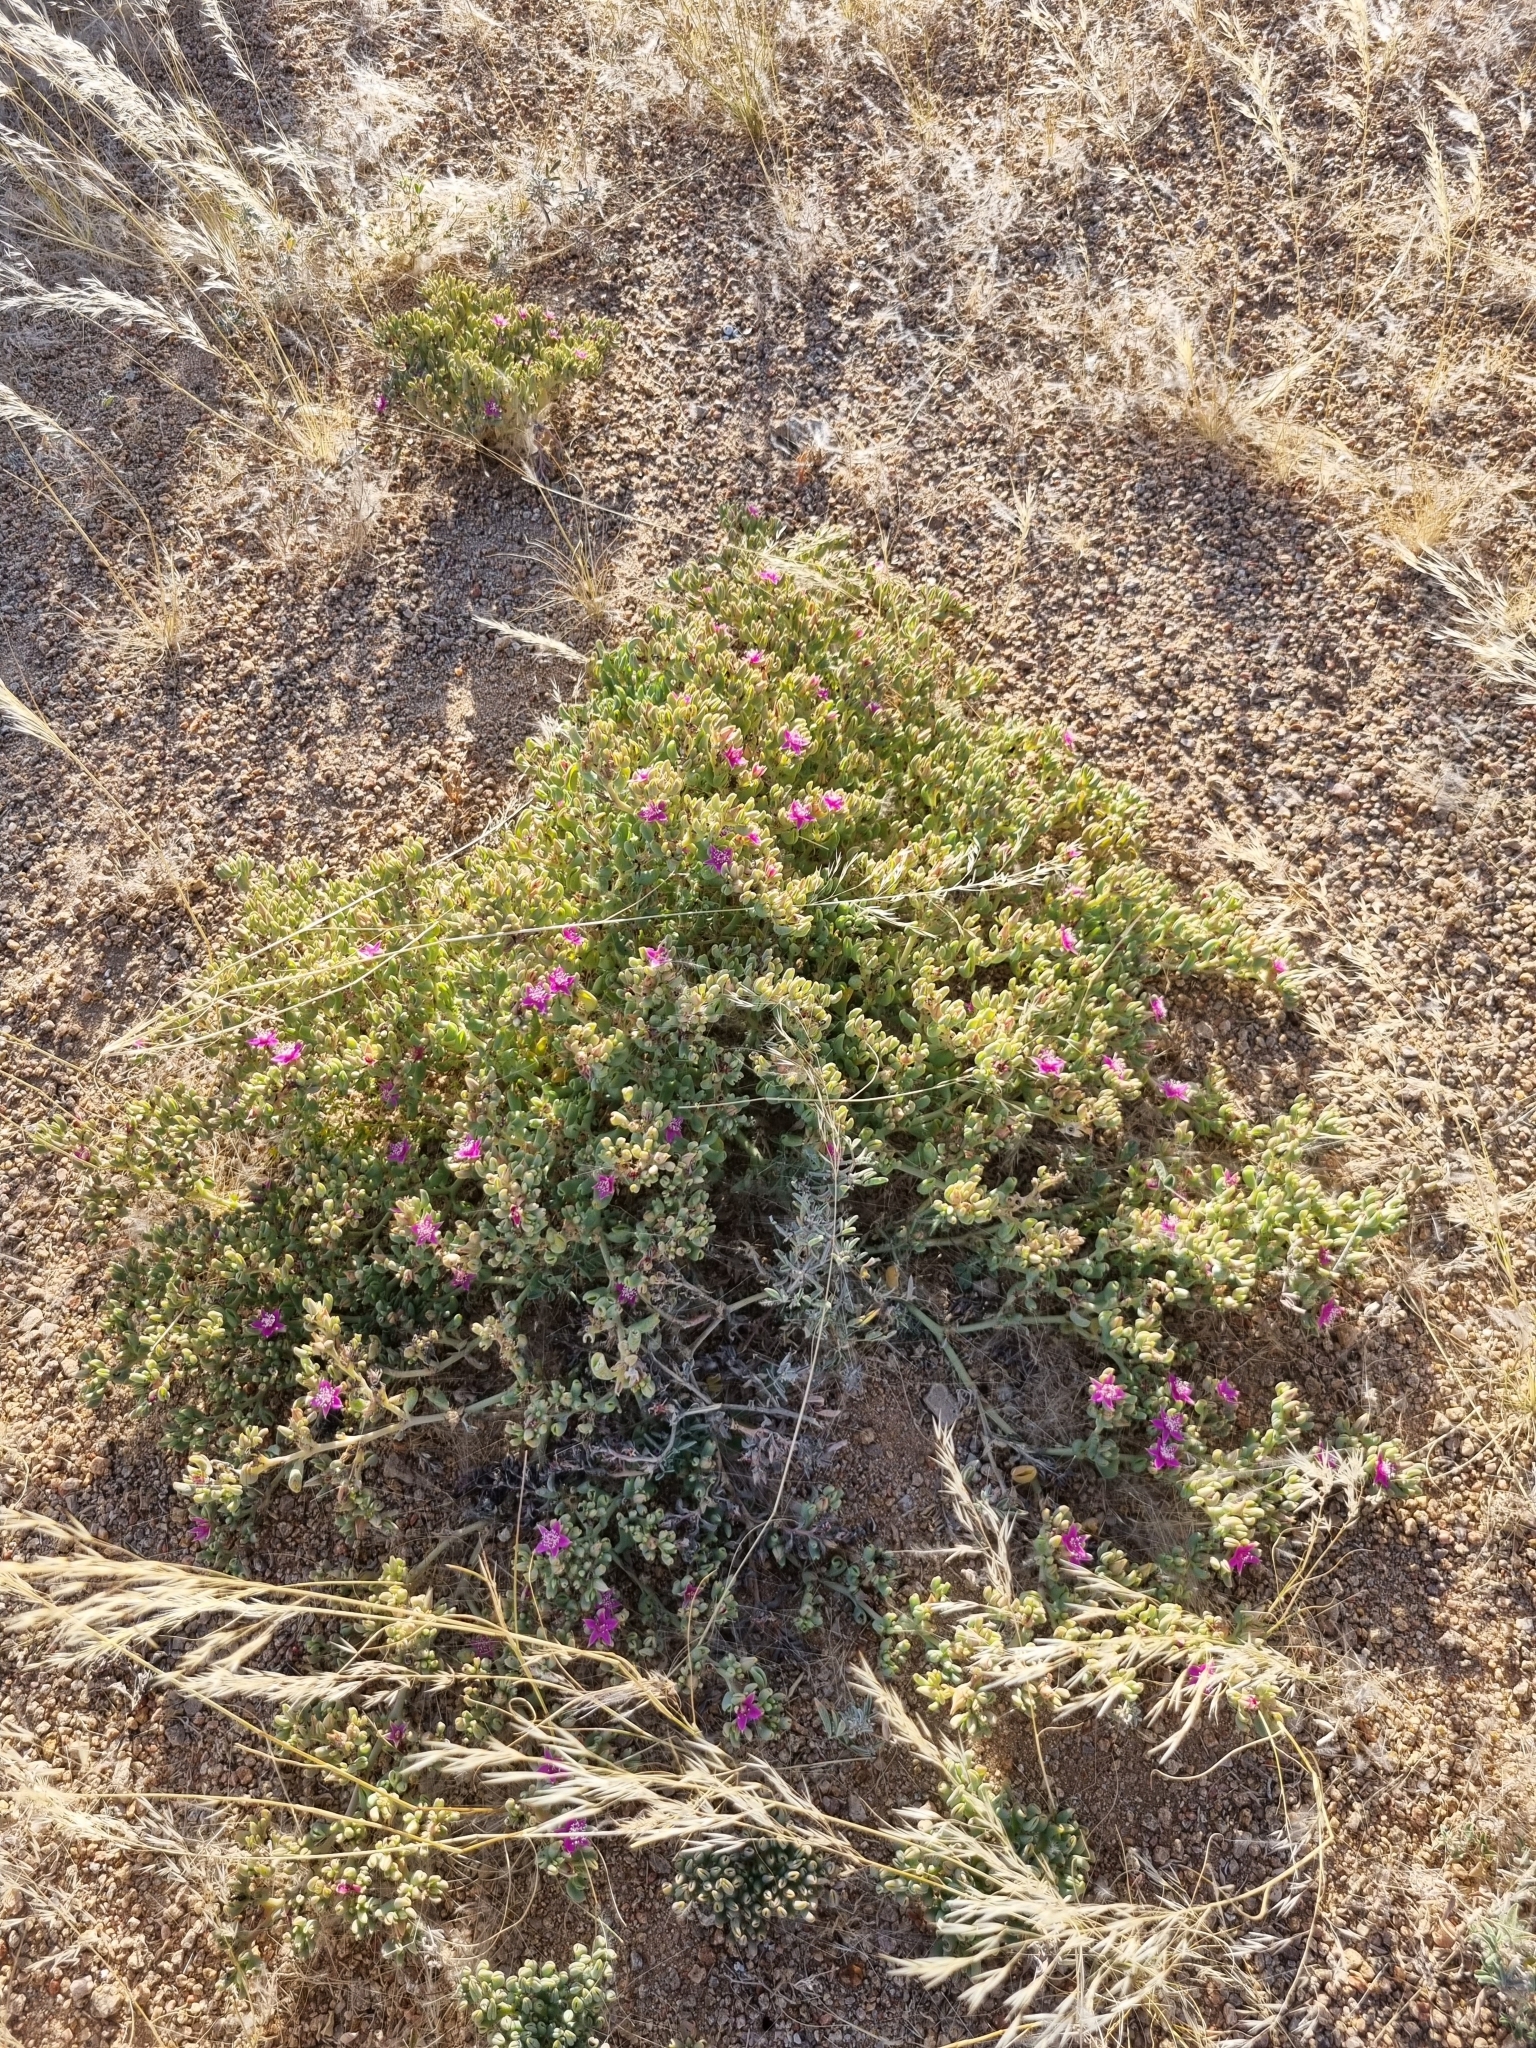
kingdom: Plantae
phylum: Tracheophyta
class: Magnoliopsida
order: Caryophyllales
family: Aizoaceae
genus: Sesuvium
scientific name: Sesuvium sesuvioides
